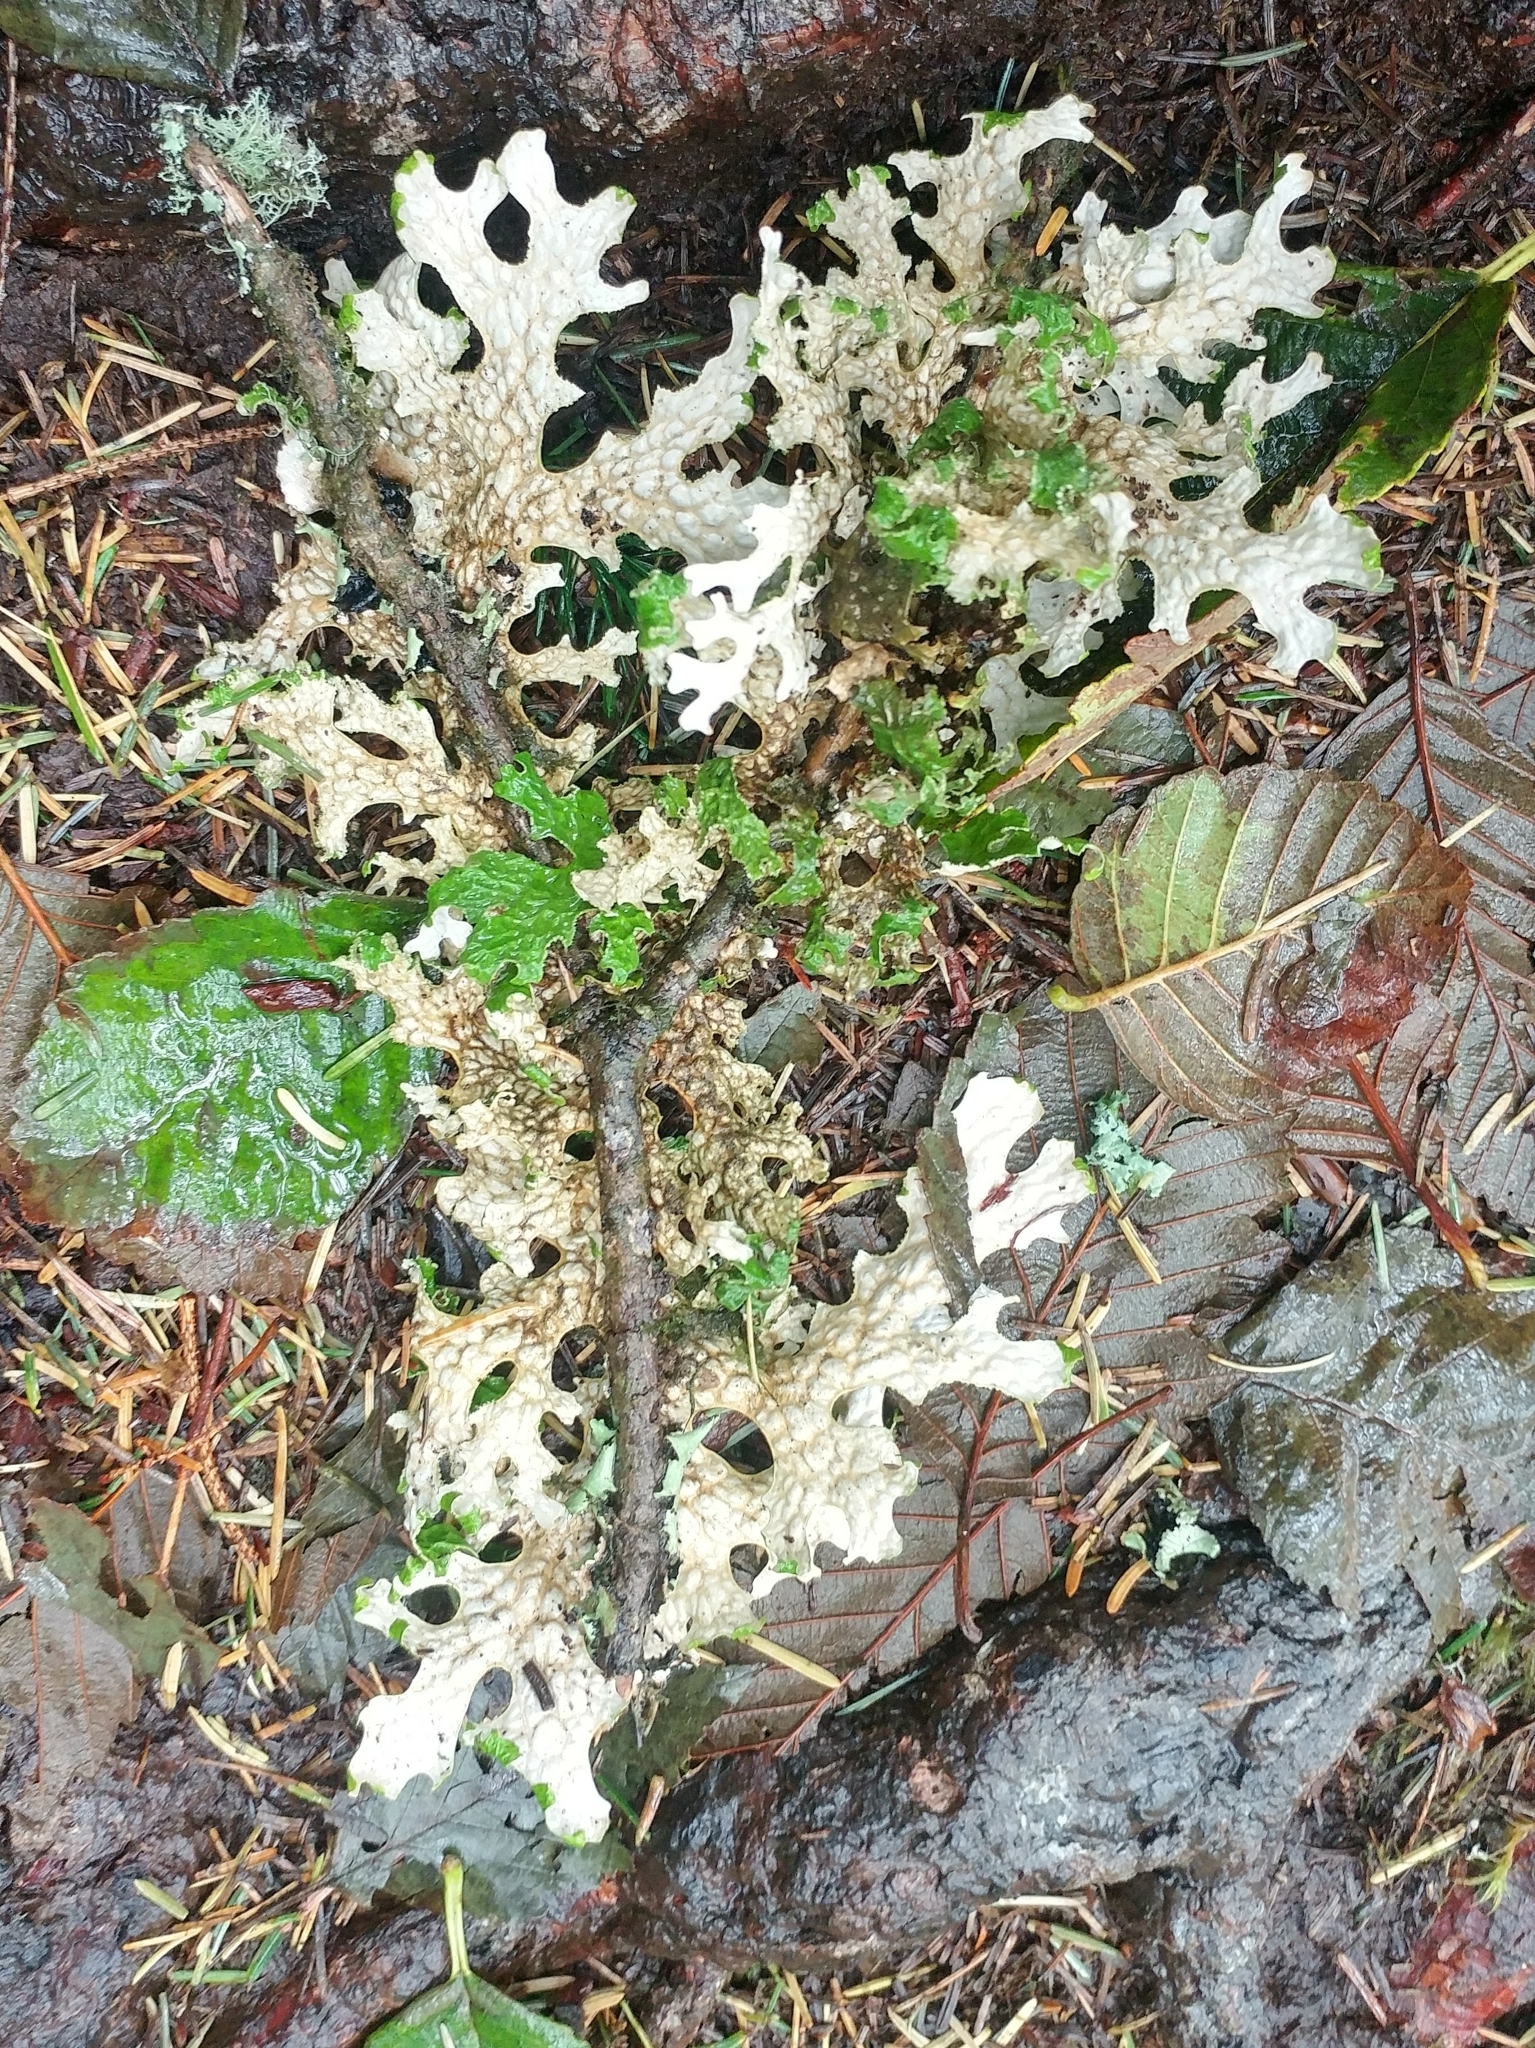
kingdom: Fungi
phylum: Ascomycota
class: Lecanoromycetes
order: Peltigerales
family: Lobariaceae
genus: Lobaria
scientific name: Lobaria pulmonaria
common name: Lungwort
